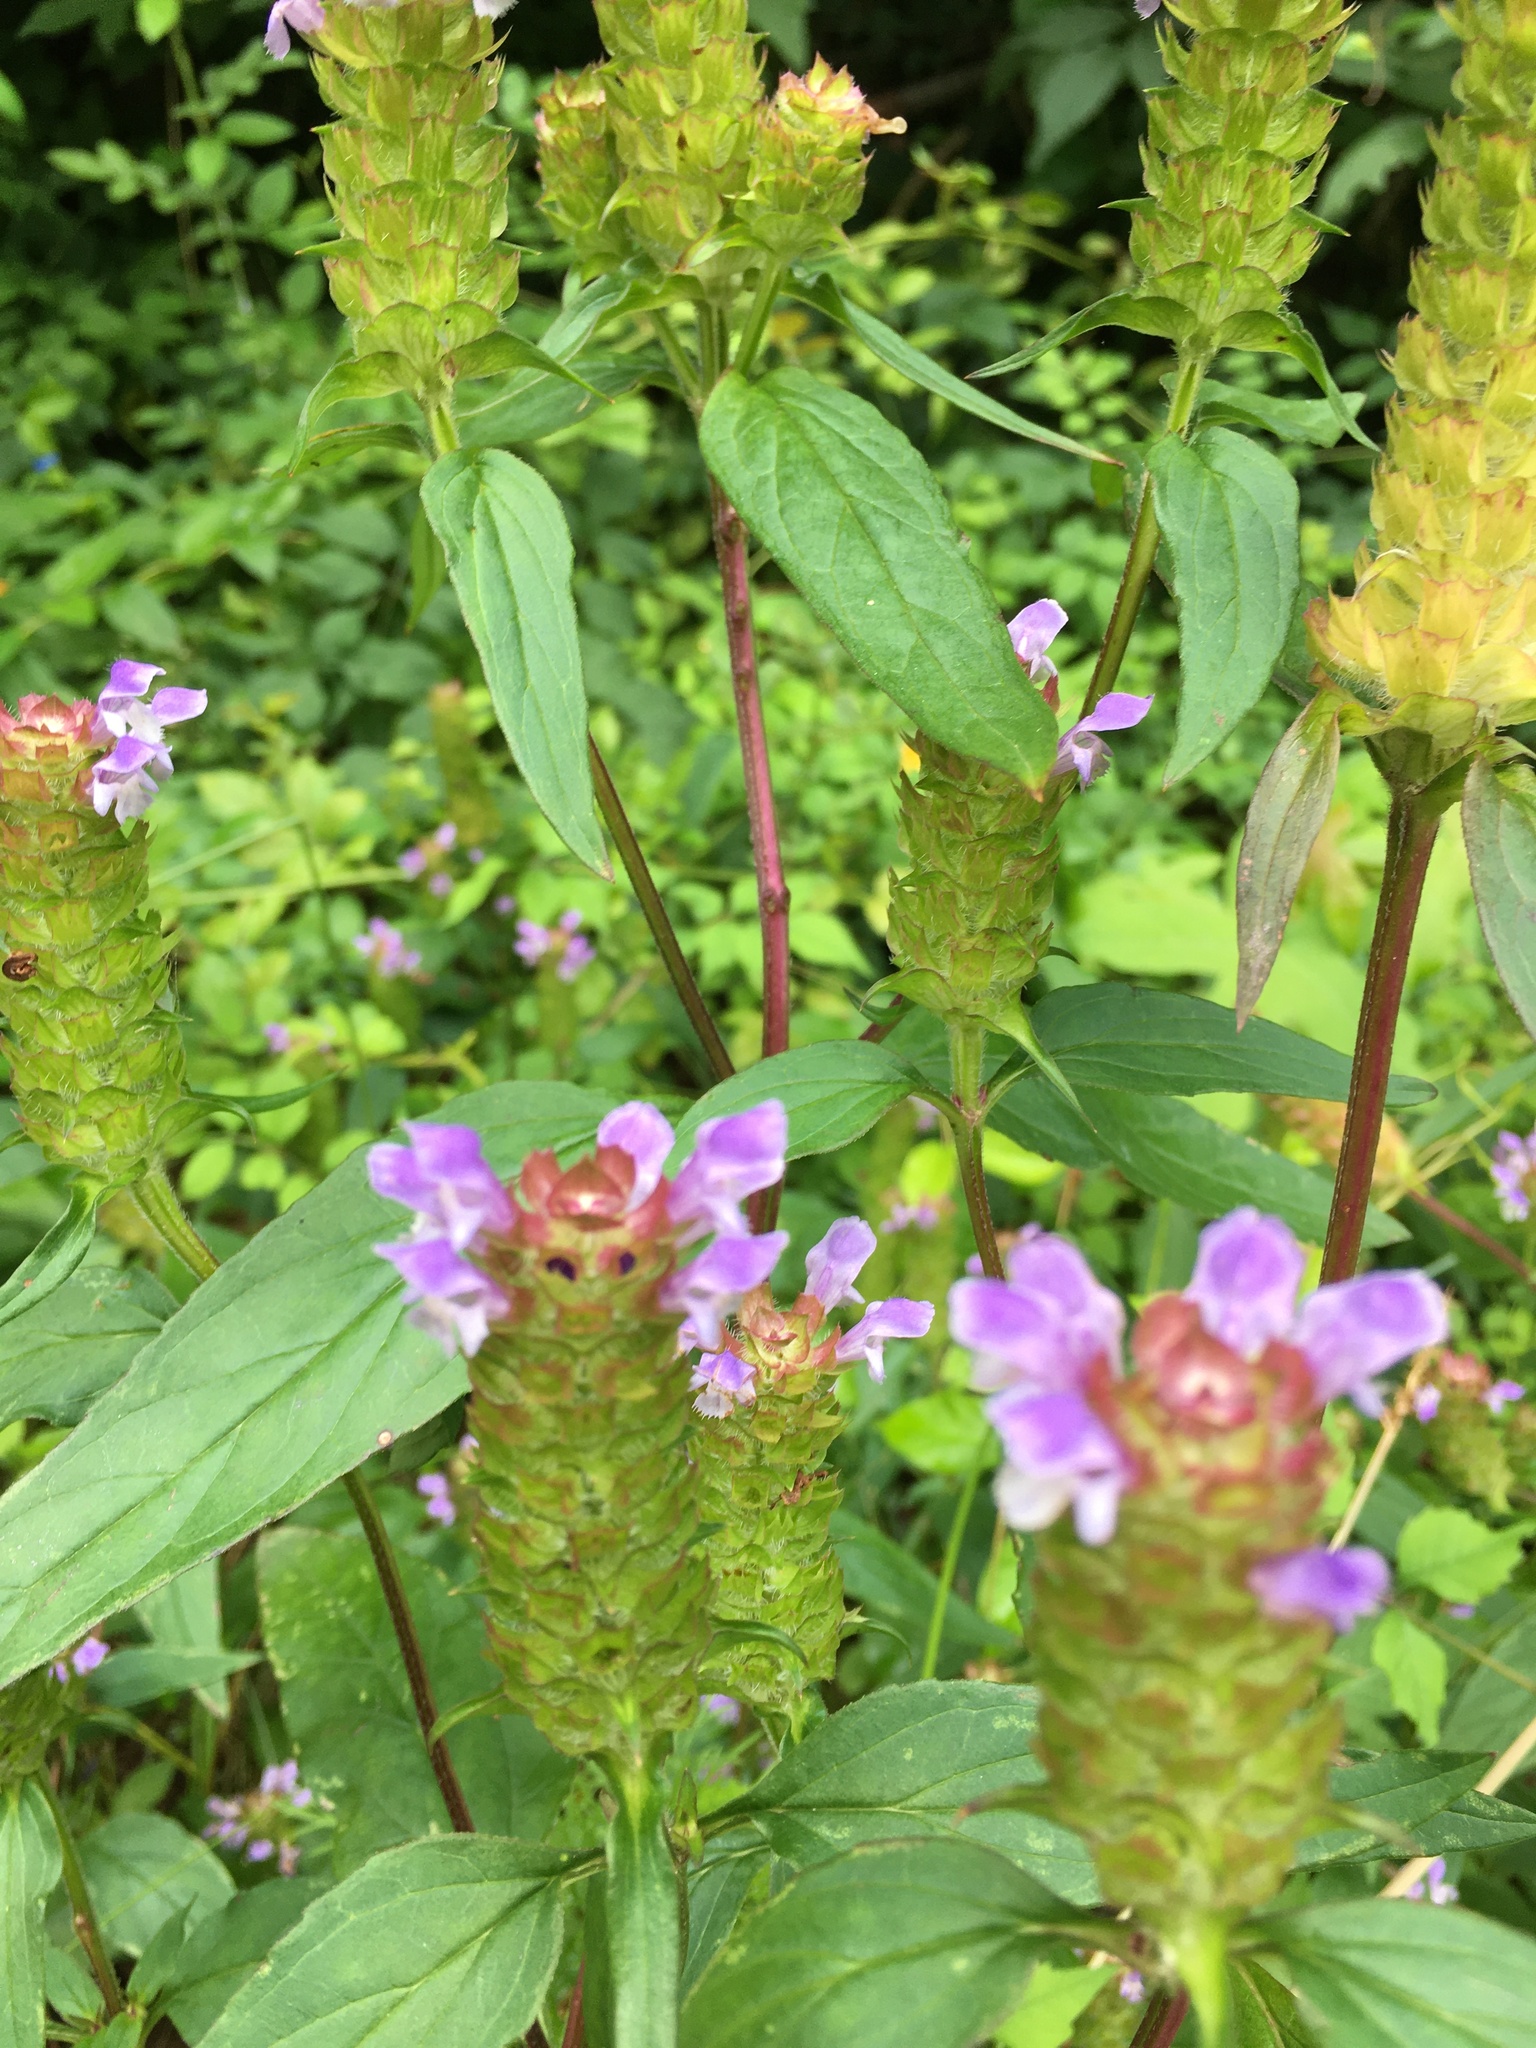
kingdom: Plantae
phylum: Tracheophyta
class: Magnoliopsida
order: Lamiales
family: Lamiaceae
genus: Prunella
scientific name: Prunella vulgaris
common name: Heal-all
